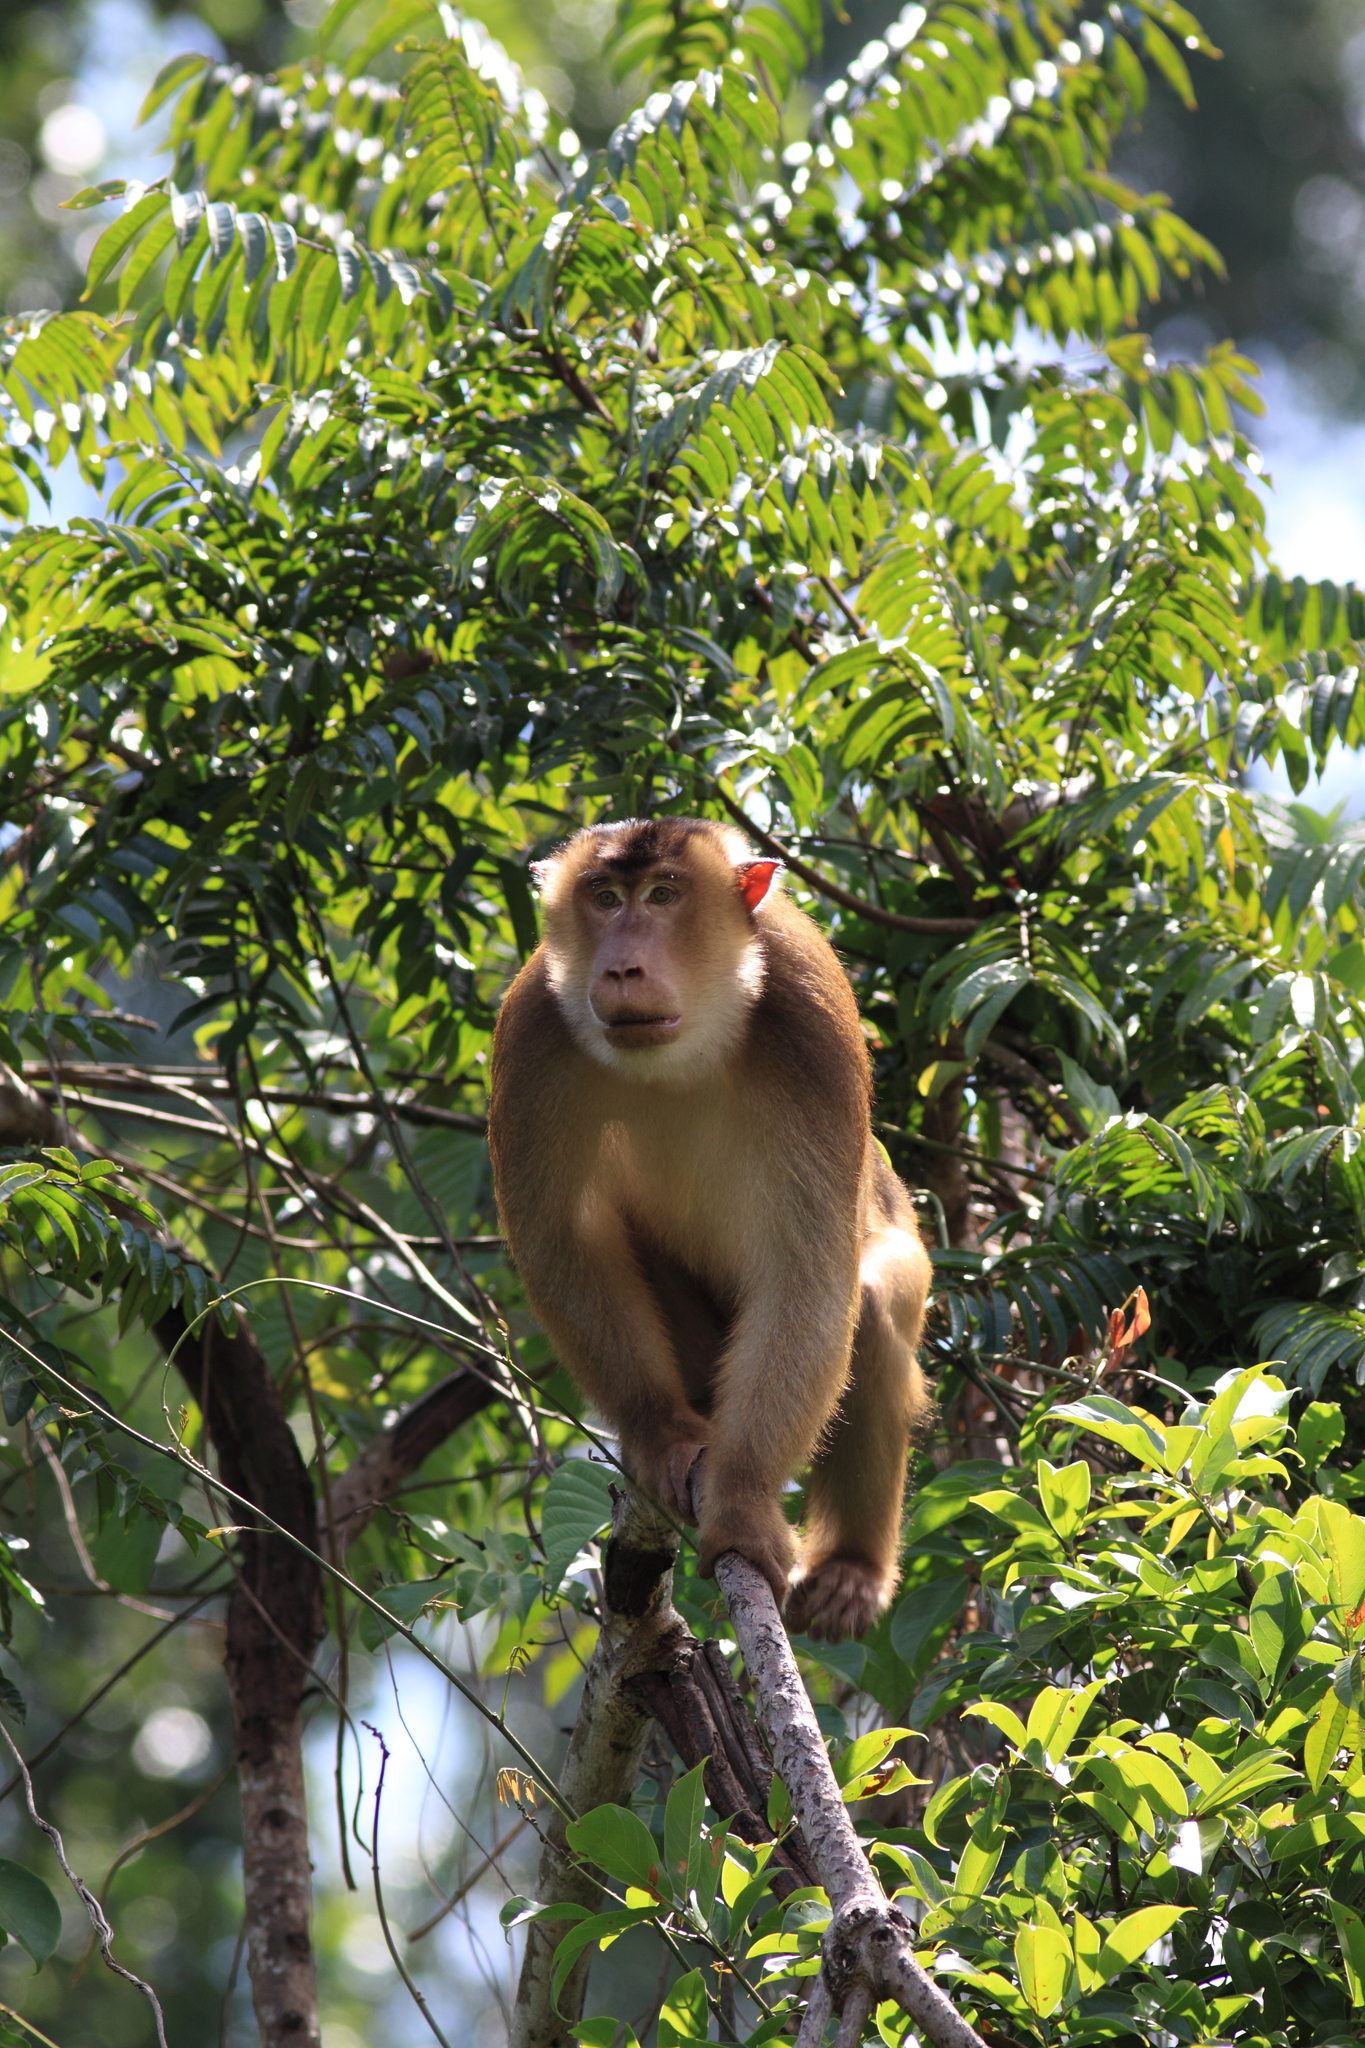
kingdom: Animalia
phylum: Chordata
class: Mammalia
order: Primates
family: Cercopithecidae
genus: Macaca
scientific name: Macaca nemestrina
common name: Southern pig-tailed macaque
